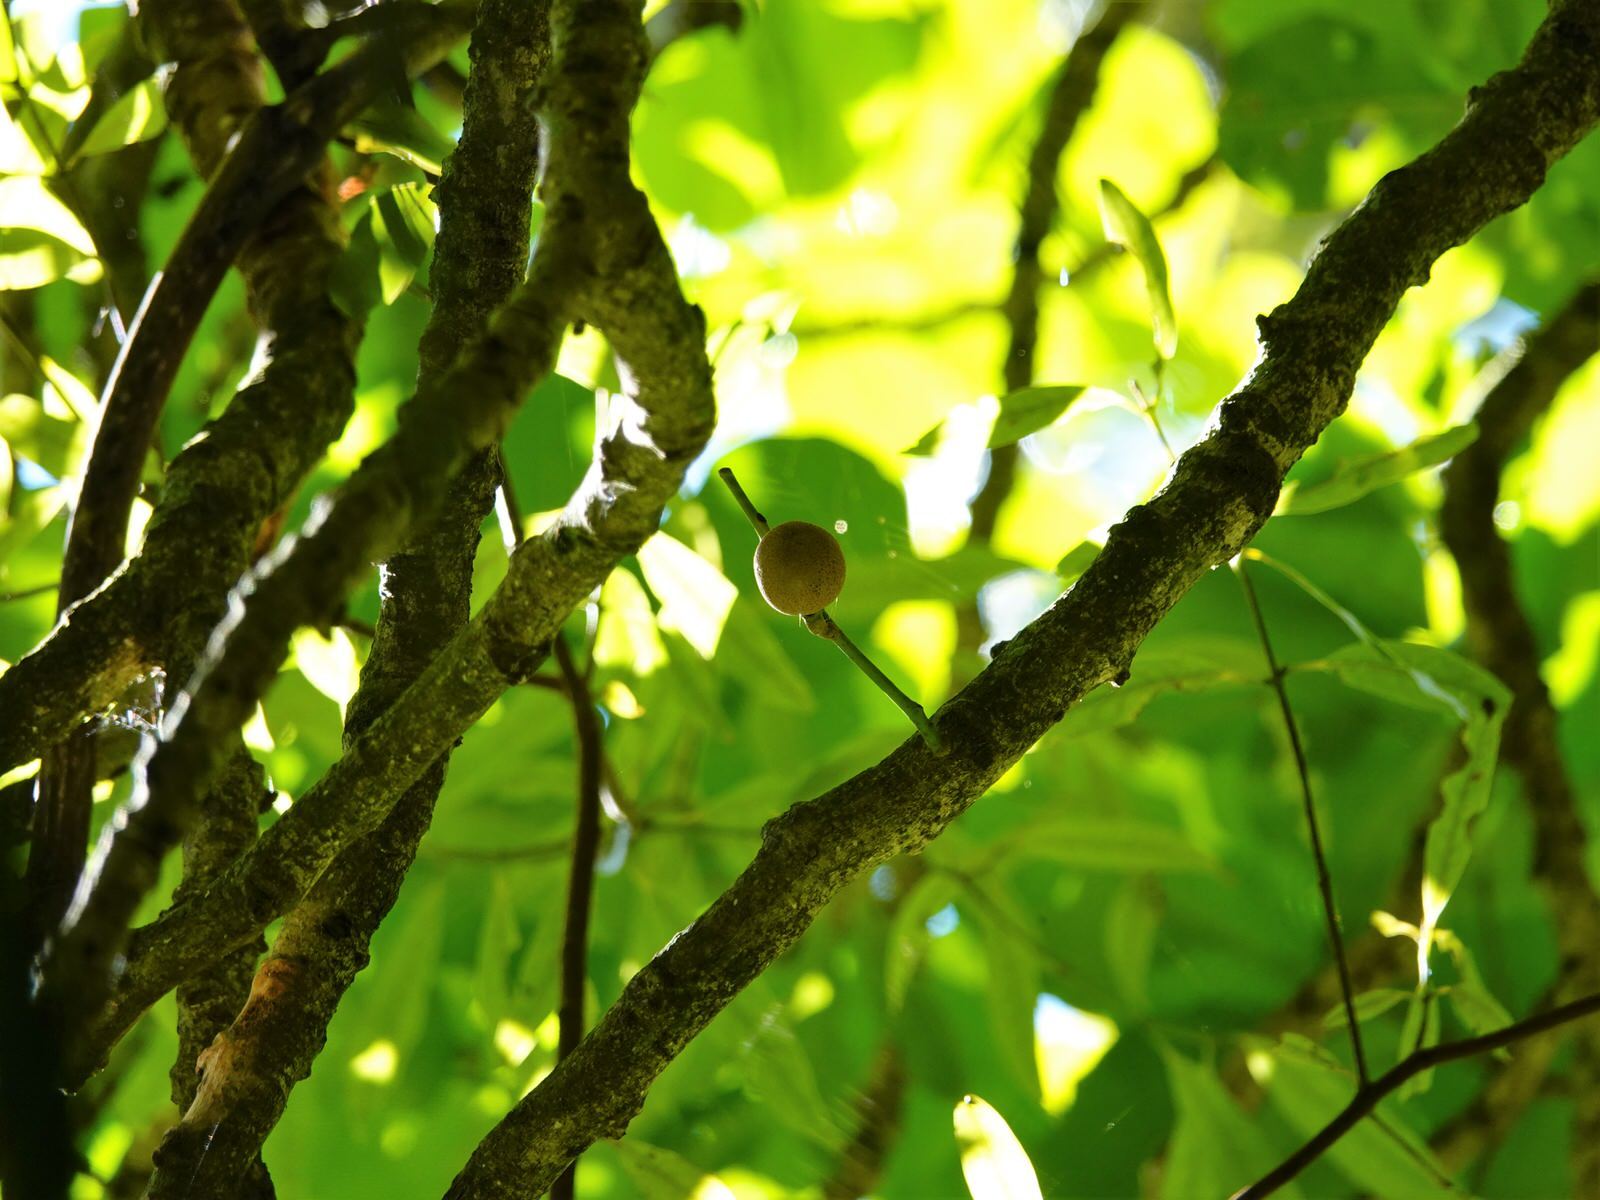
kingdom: Plantae
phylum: Tracheophyta
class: Magnoliopsida
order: Sapindales
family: Meliaceae
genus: Didymocheton
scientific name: Didymocheton spectabilis
